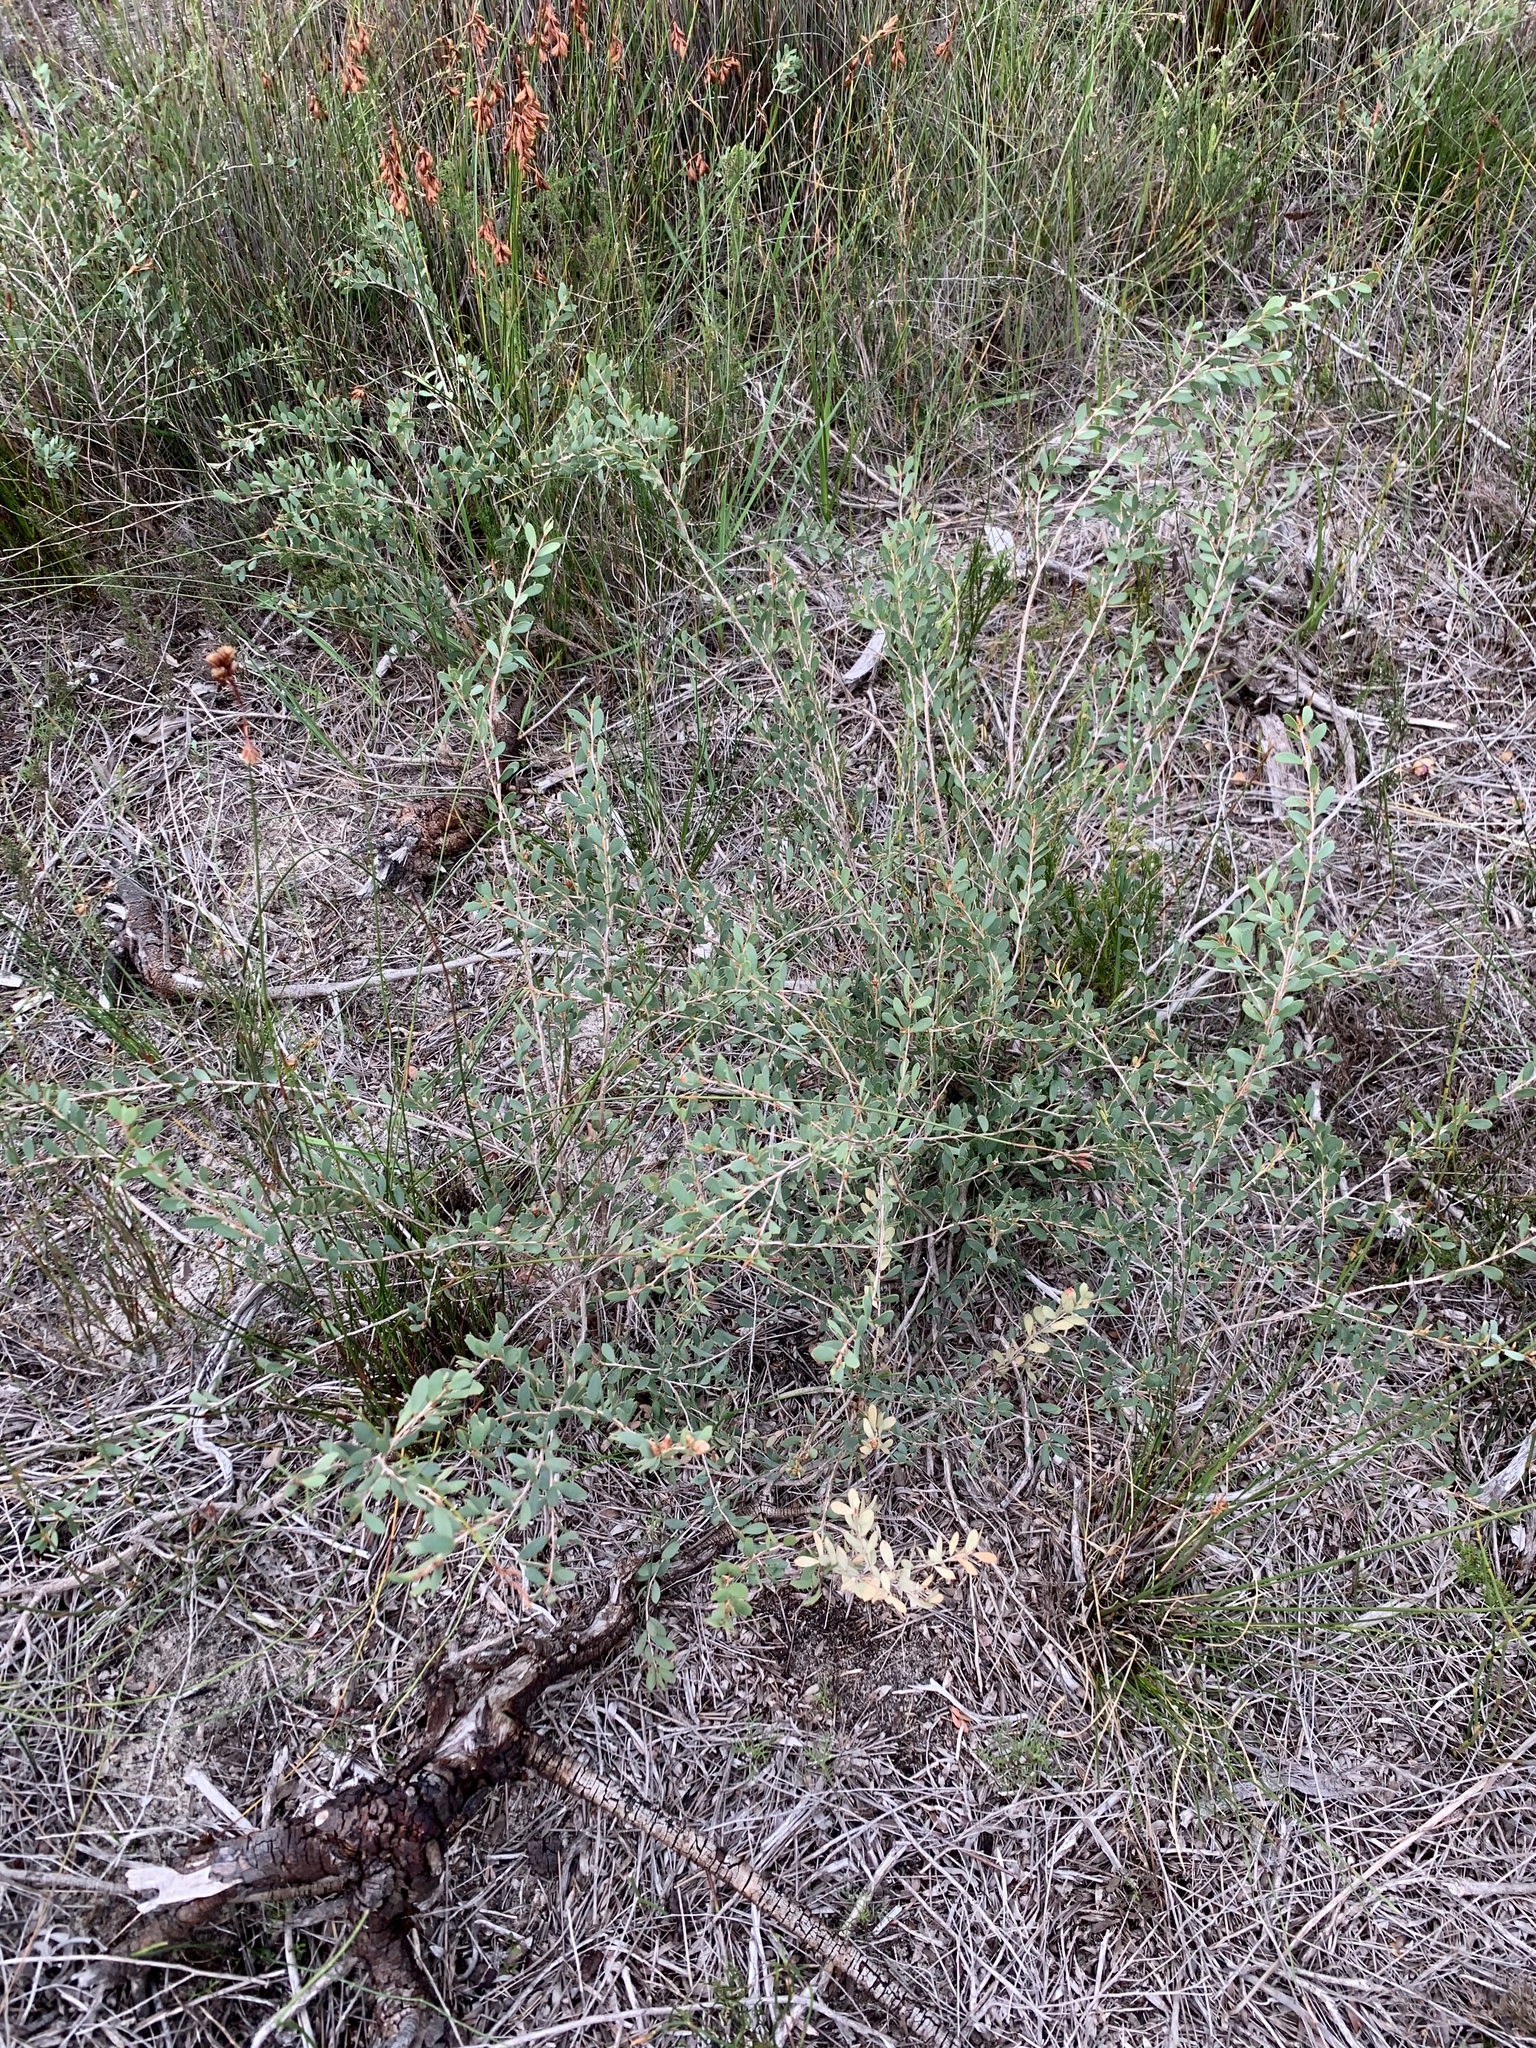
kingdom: Plantae
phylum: Tracheophyta
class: Magnoliopsida
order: Myrtales
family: Myrtaceae
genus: Leptospermum
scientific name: Leptospermum laevigatum
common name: Australian teatree
